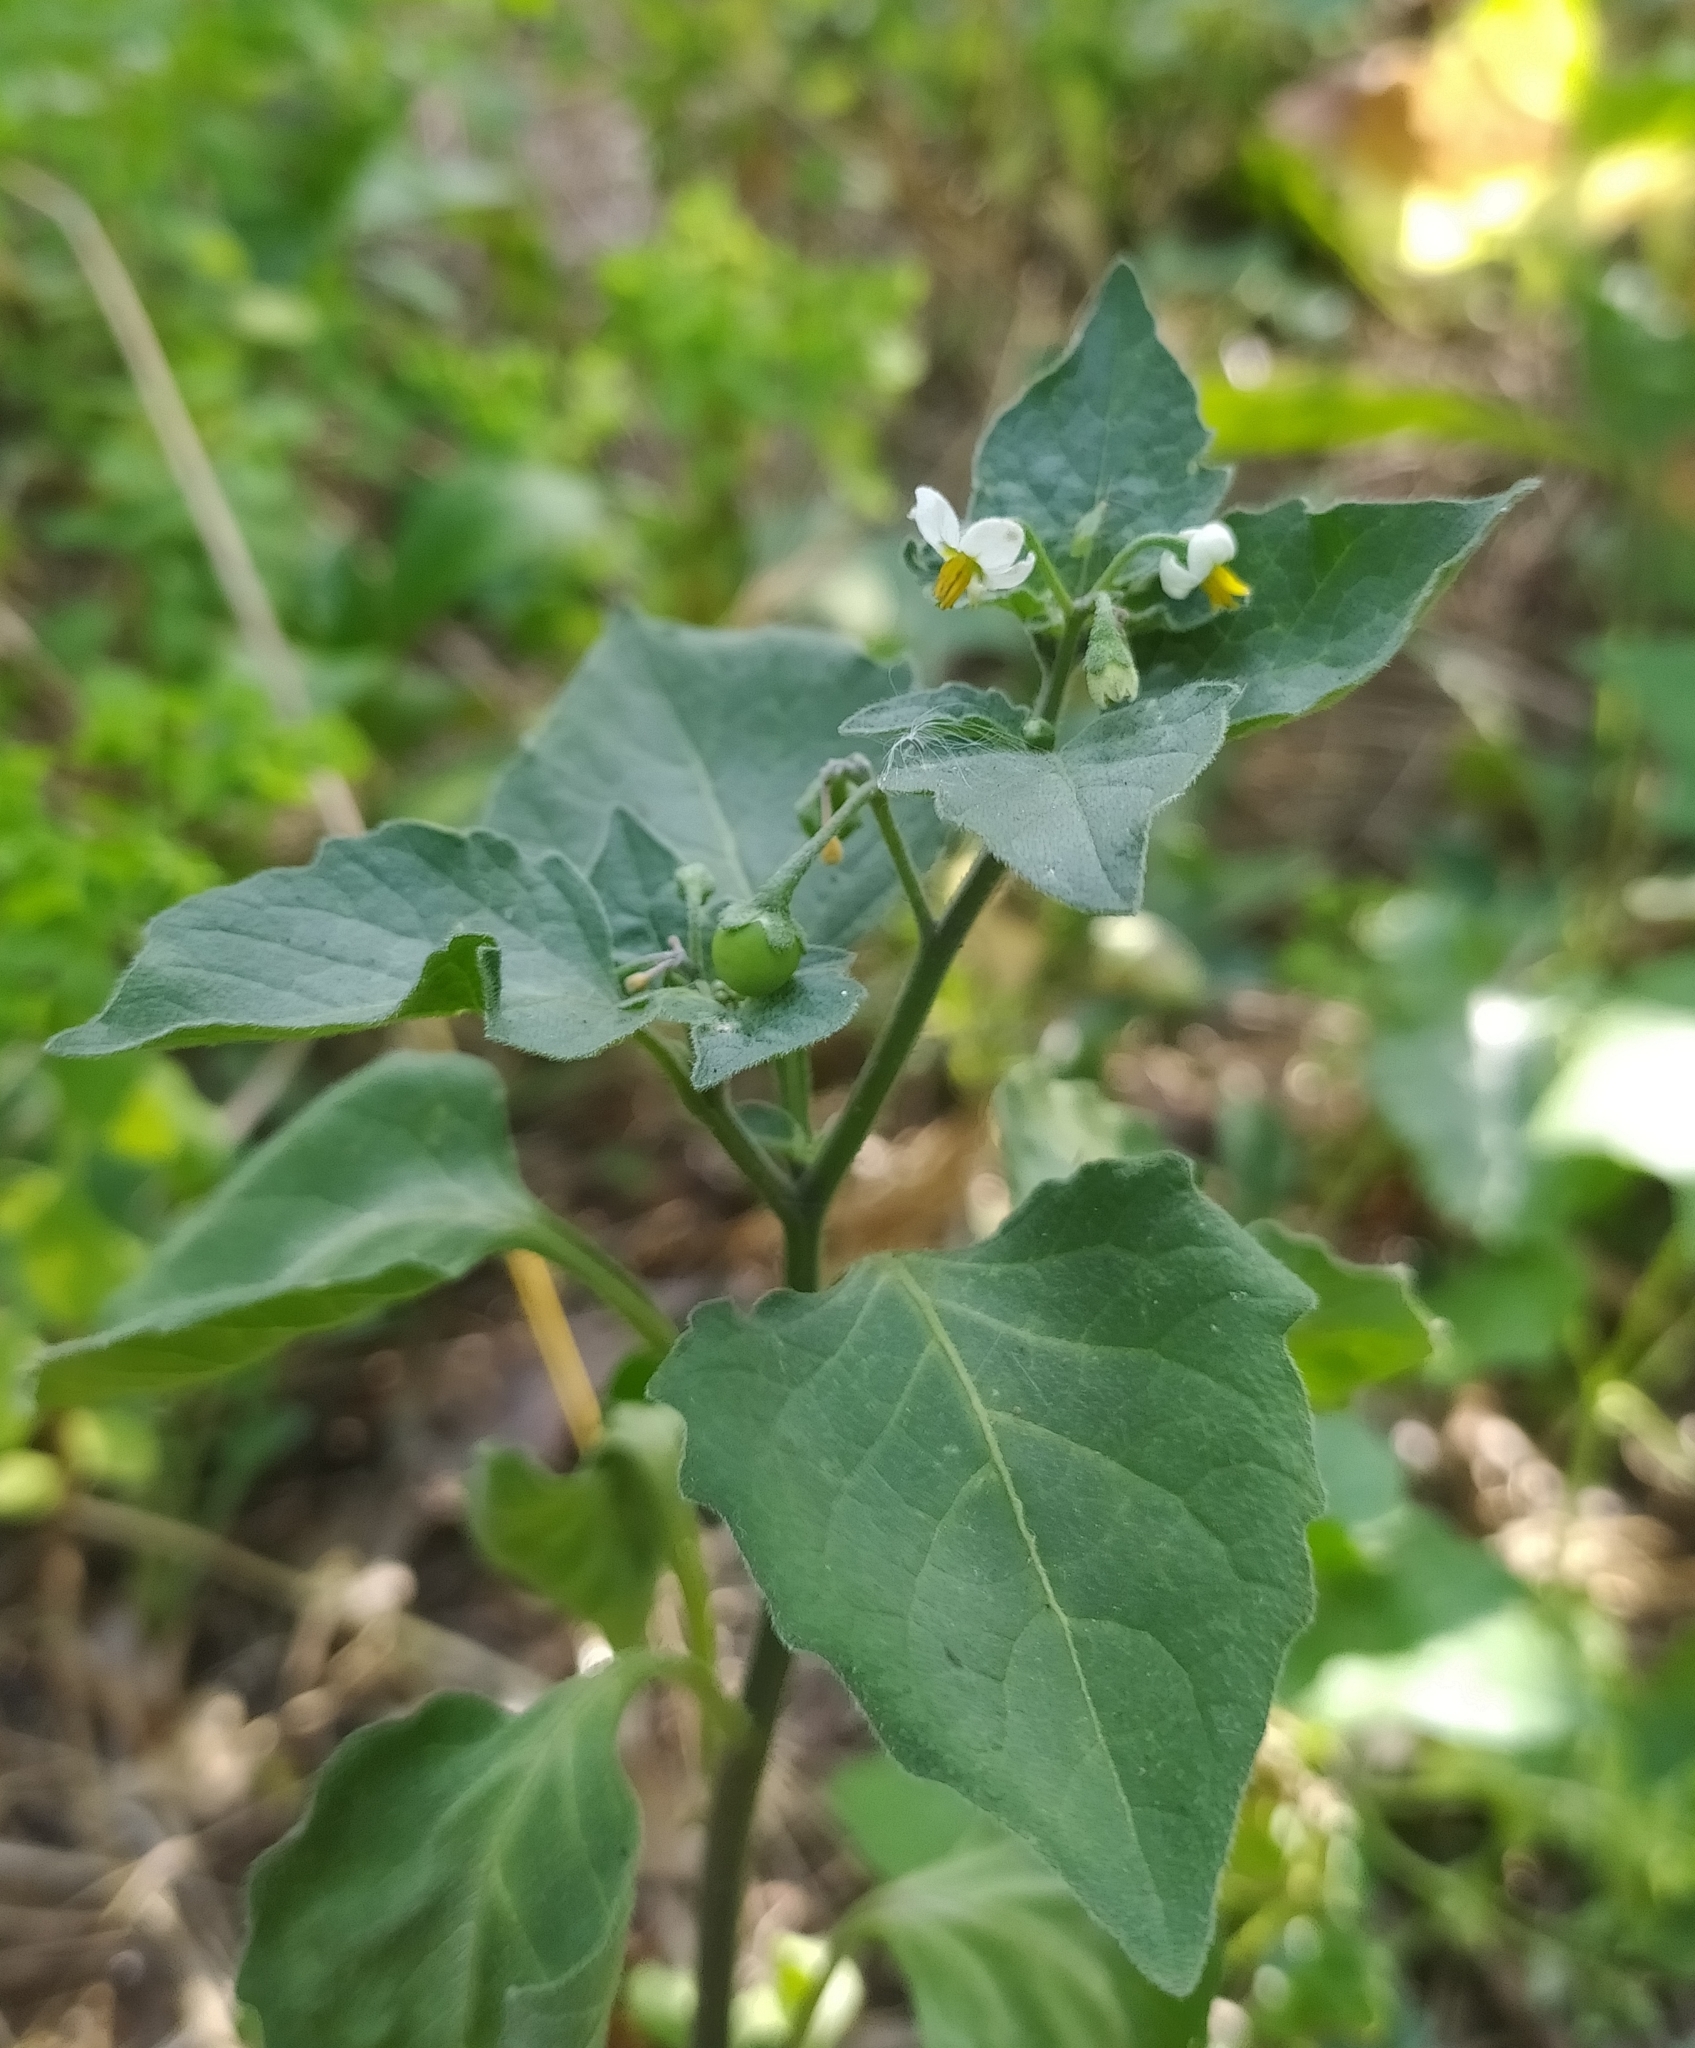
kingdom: Plantae
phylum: Tracheophyta
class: Magnoliopsida
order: Solanales
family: Solanaceae
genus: Solanum
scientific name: Solanum nigrum
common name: Black nightshade
